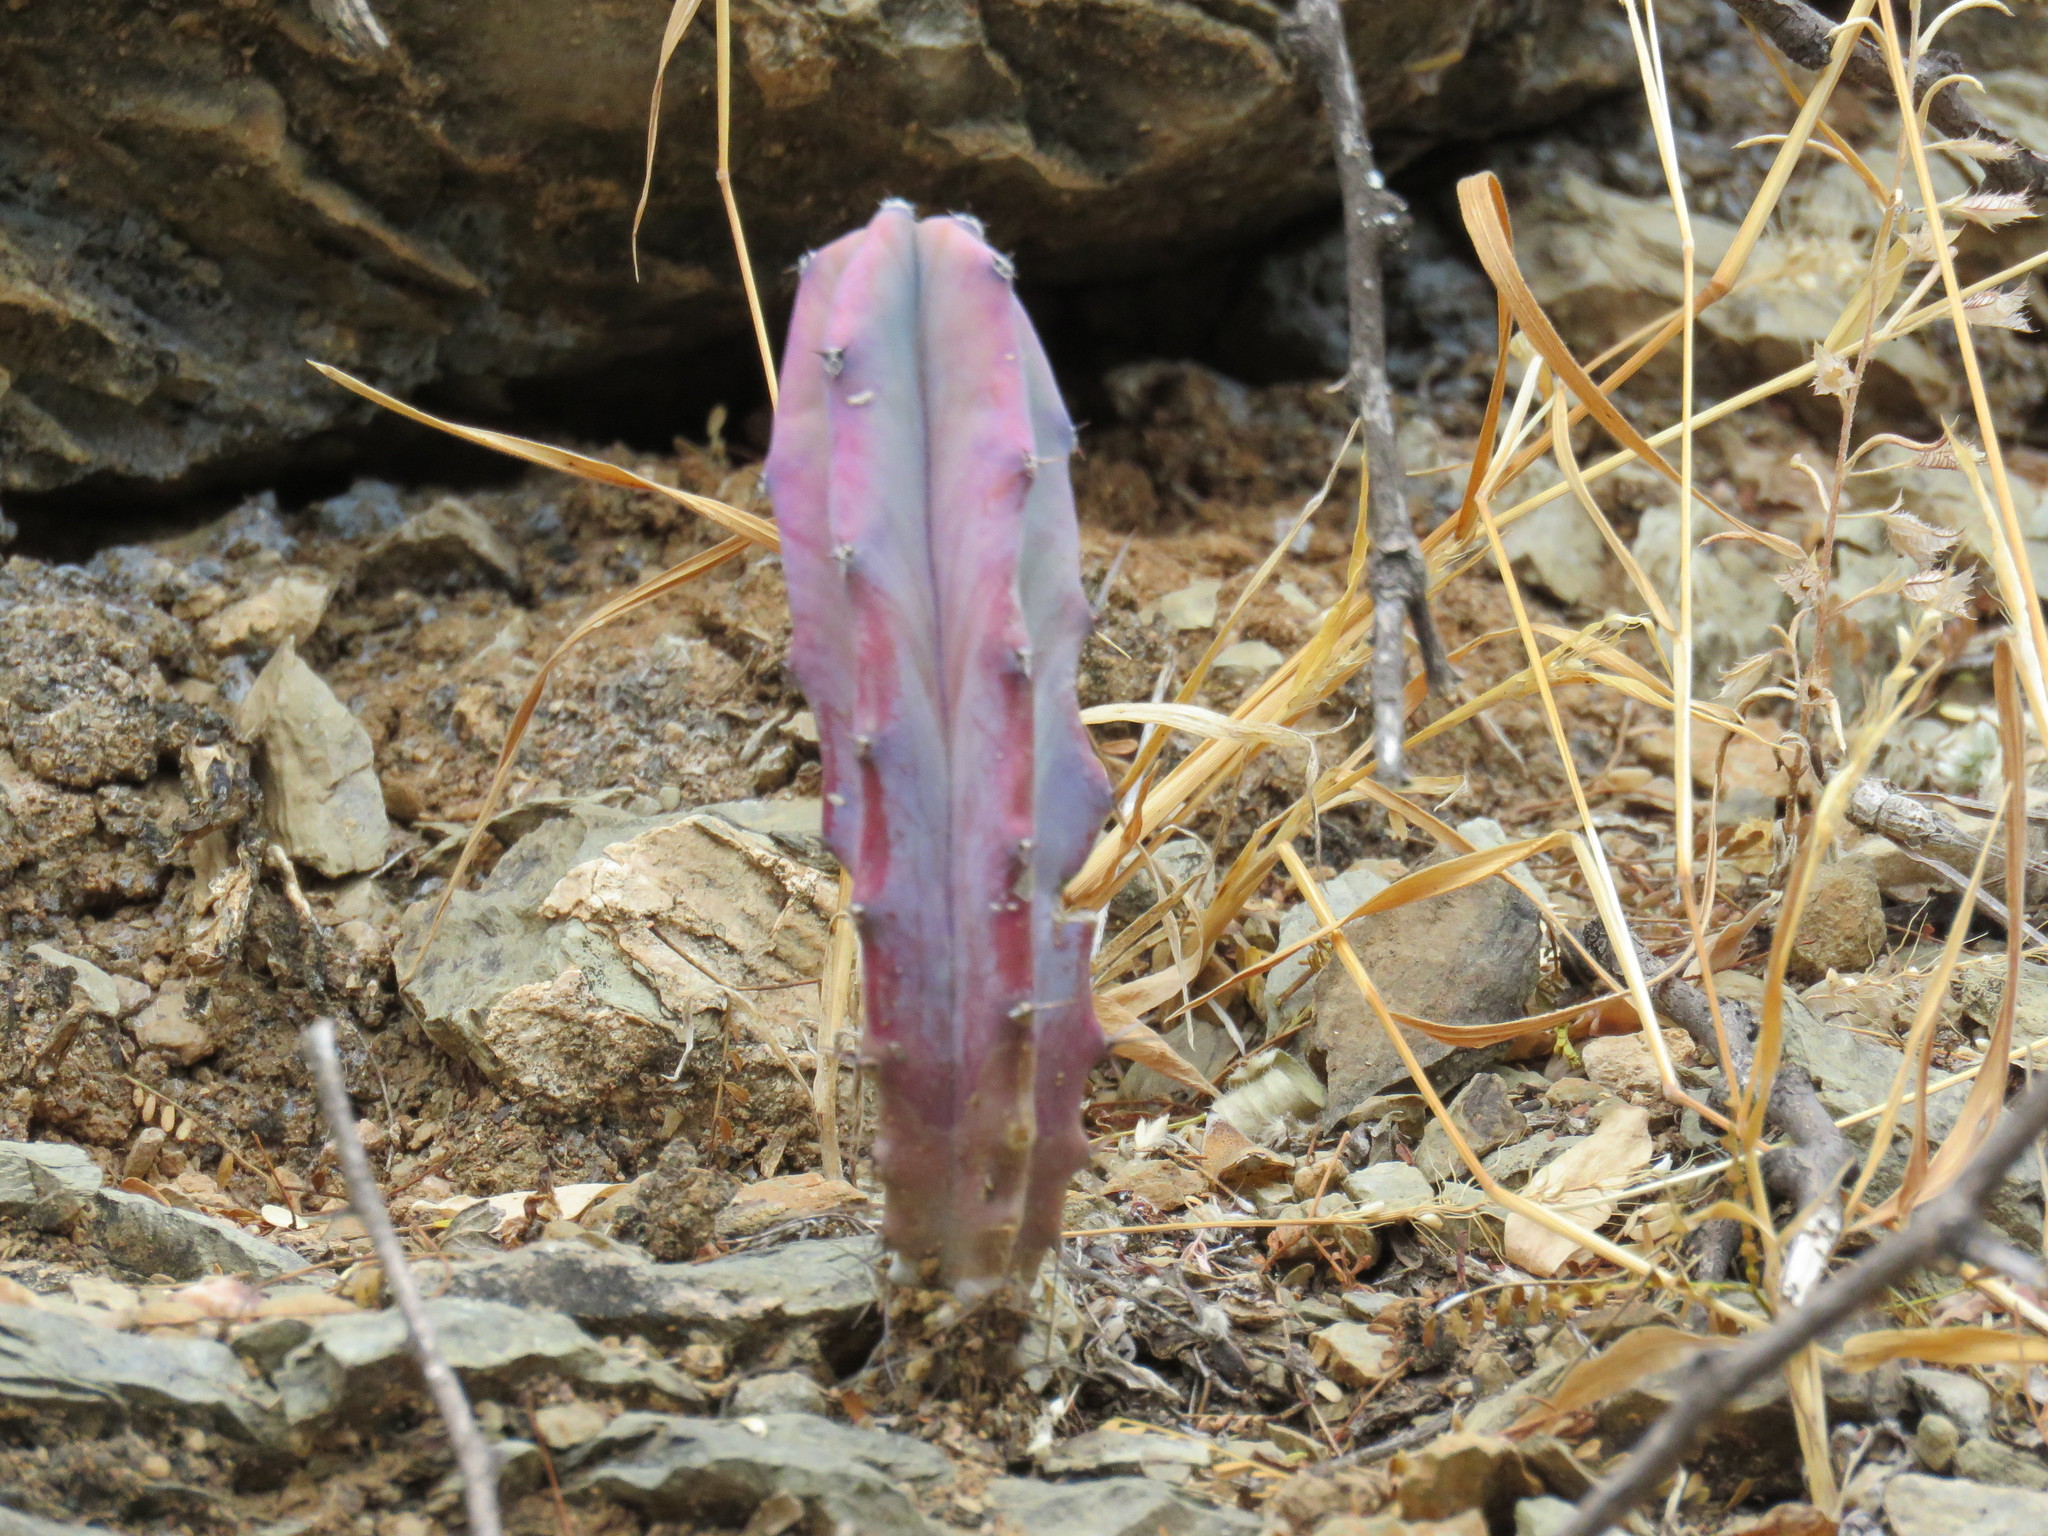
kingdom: Plantae
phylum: Tracheophyta
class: Magnoliopsida
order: Caryophyllales
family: Cactaceae
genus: Myrtillocactus
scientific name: Myrtillocactus geometrizans
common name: Bilberry cactus
